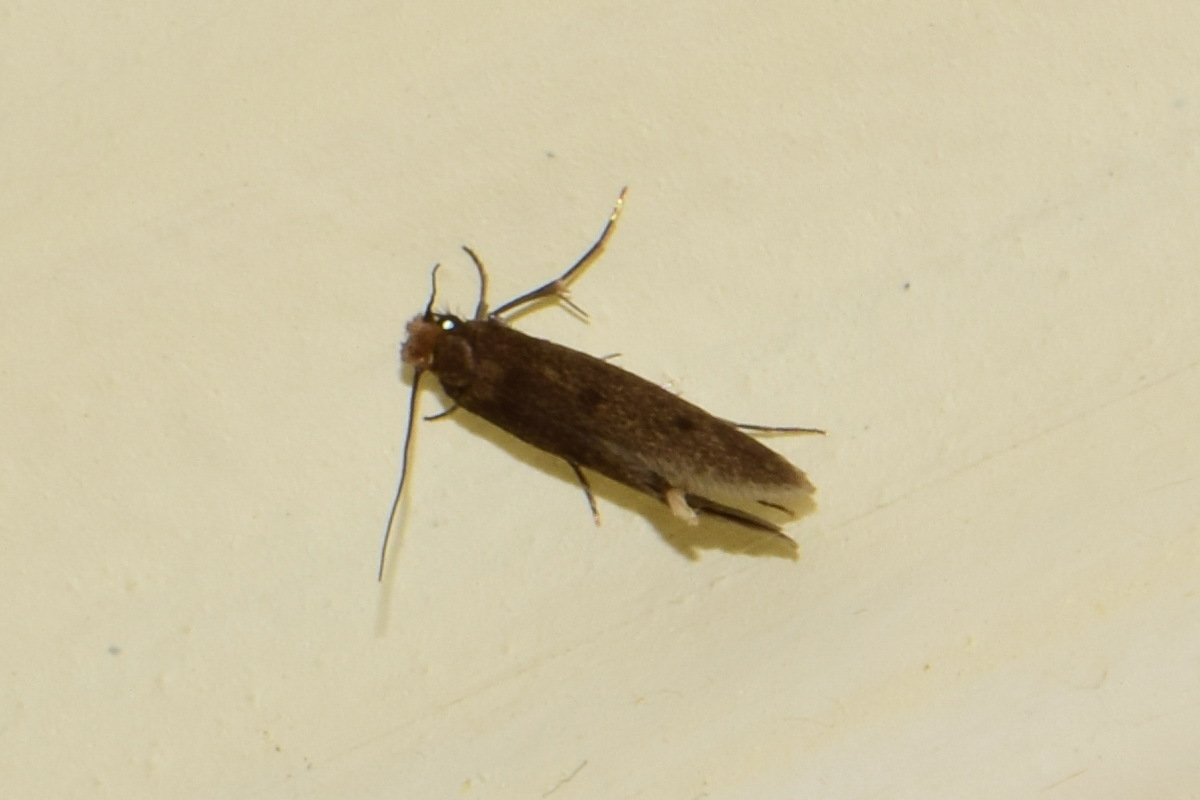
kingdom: Animalia
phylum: Arthropoda
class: Insecta
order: Lepidoptera
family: Tineidae
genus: Tinea
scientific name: Tinea pellionella
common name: Case-making clothes moth
